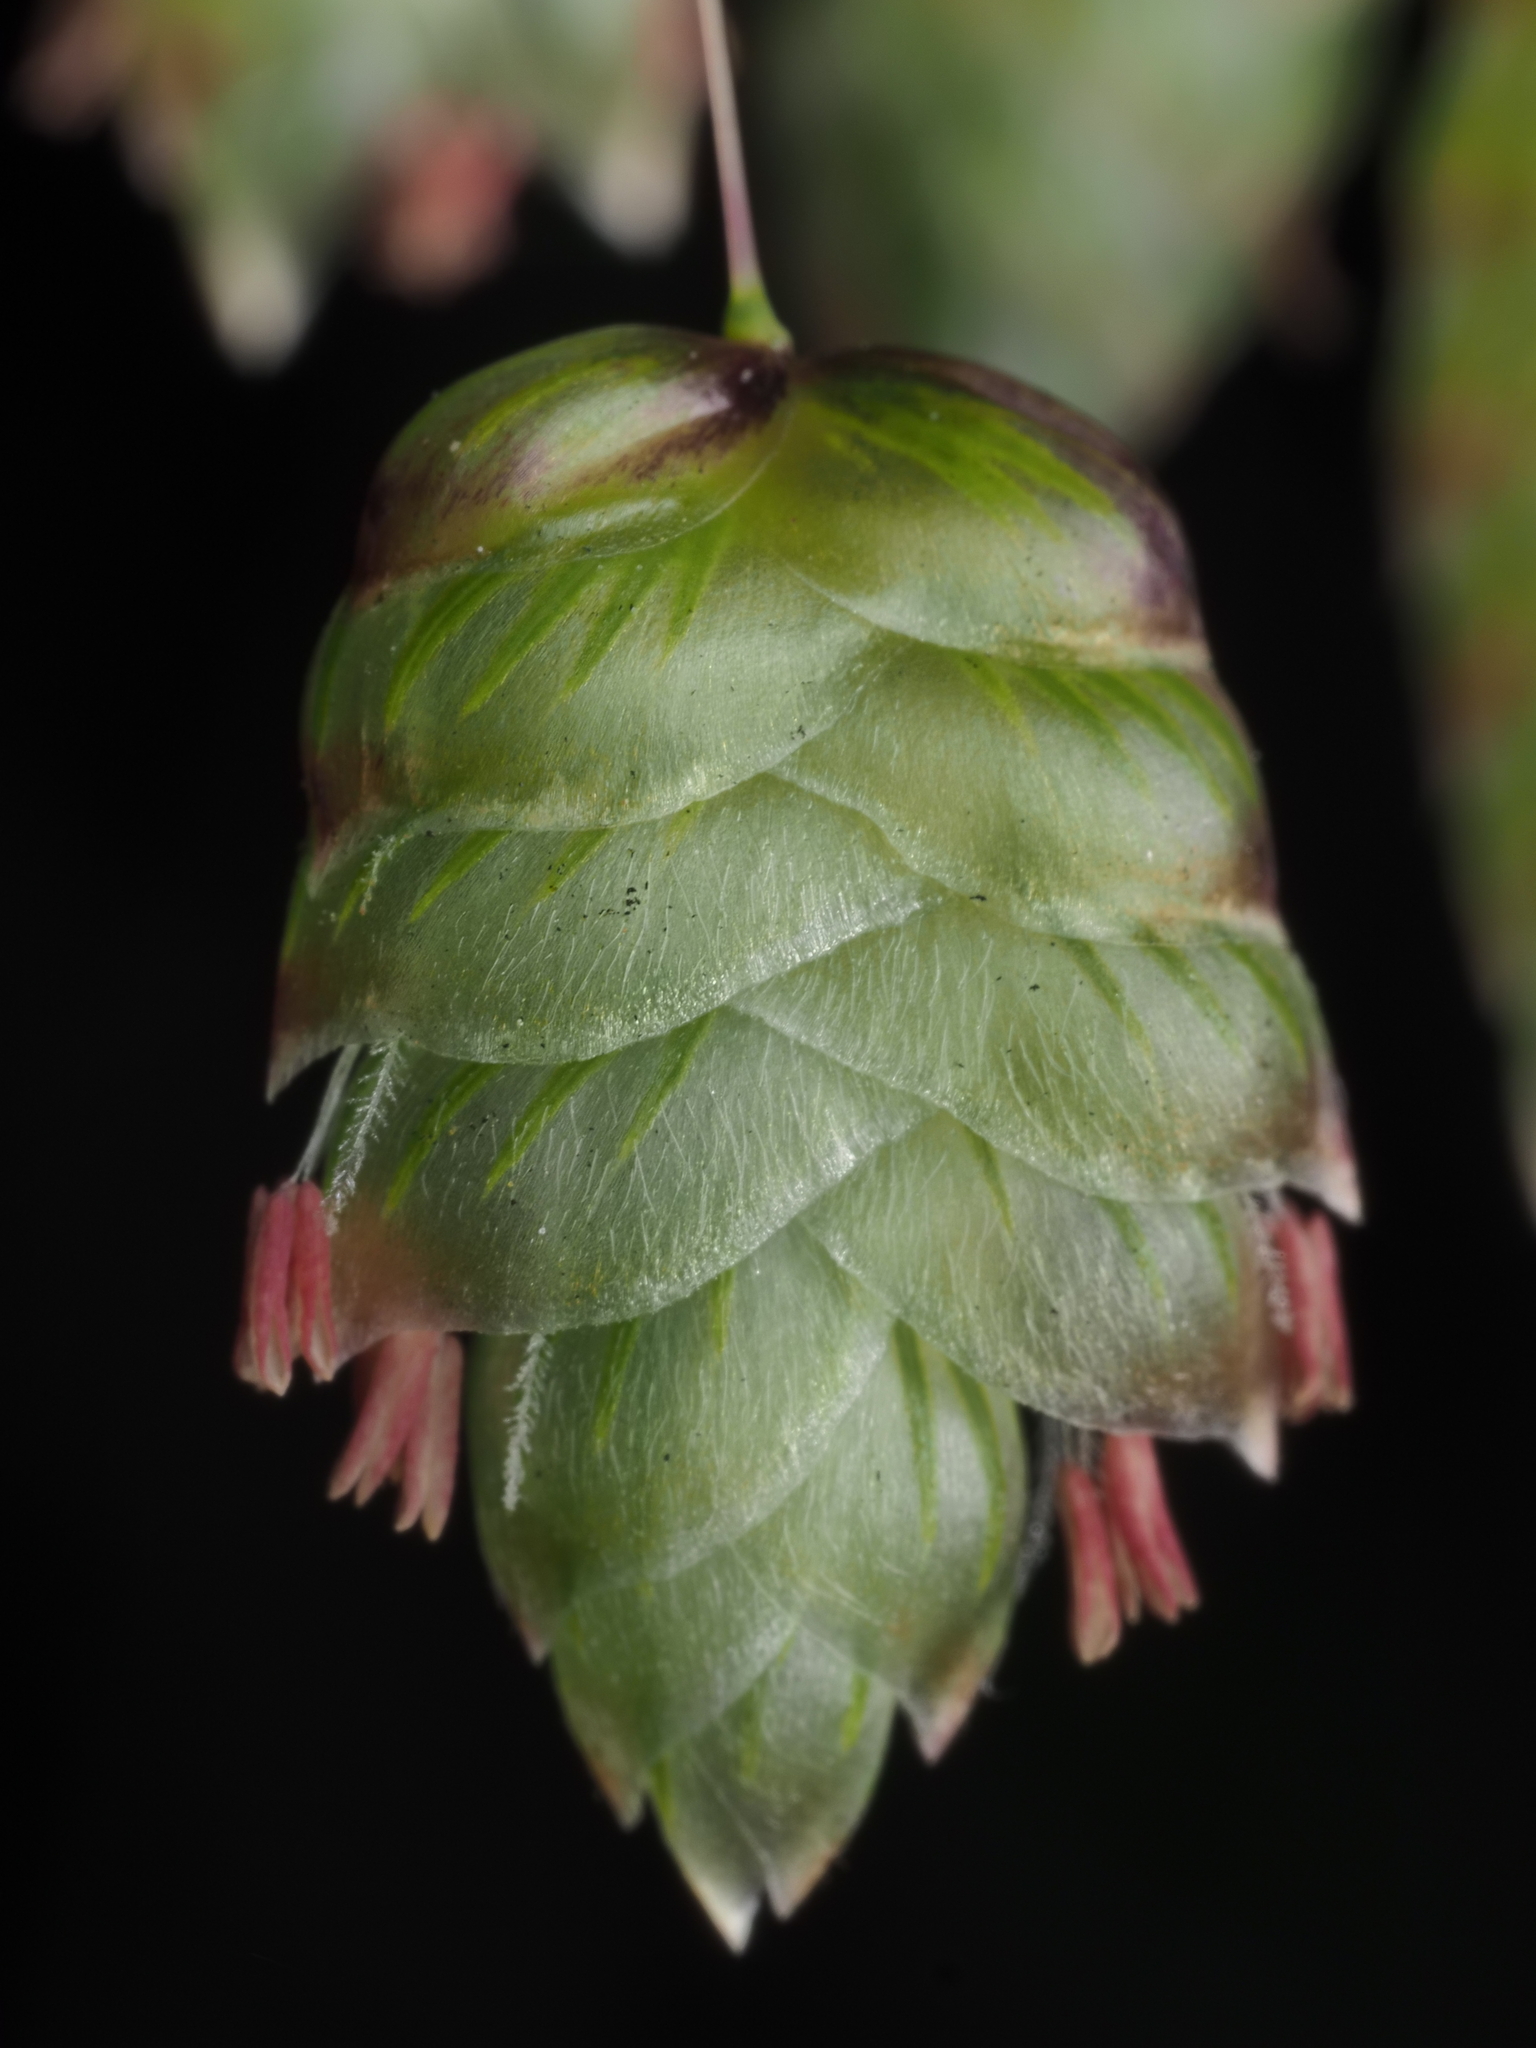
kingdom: Plantae
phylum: Tracheophyta
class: Liliopsida
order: Poales
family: Poaceae
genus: Briza
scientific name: Briza maxima
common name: Big quakinggrass
